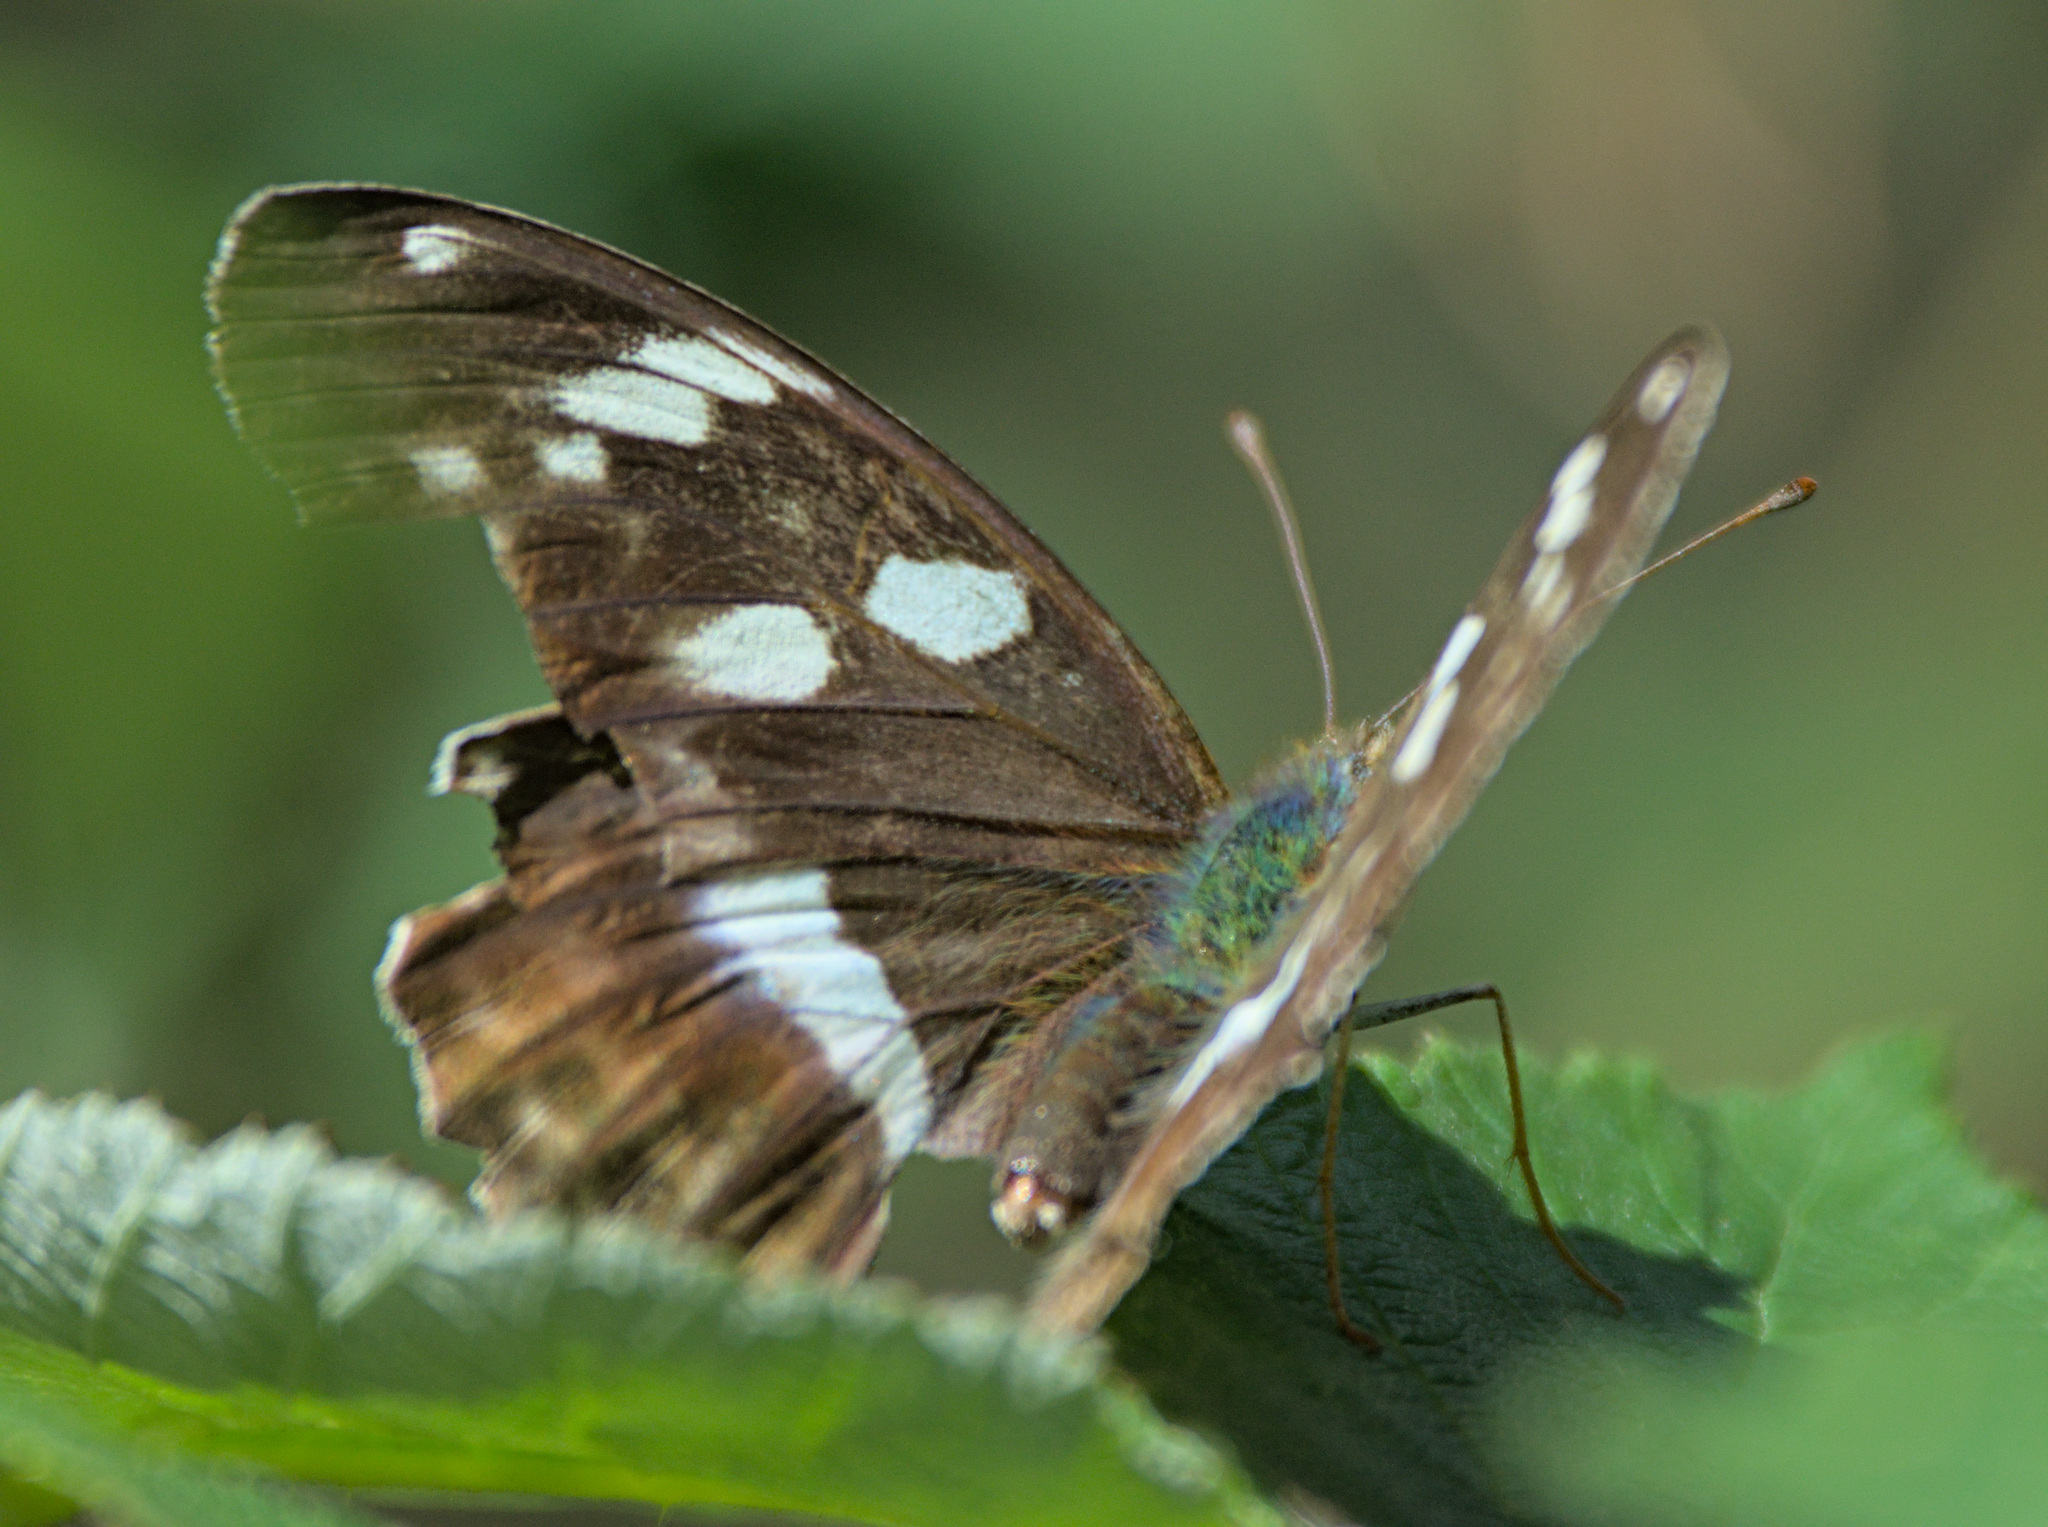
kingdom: Animalia
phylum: Arthropoda
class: Insecta
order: Lepidoptera
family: Nymphalidae
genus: Damora
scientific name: Damora sagana
